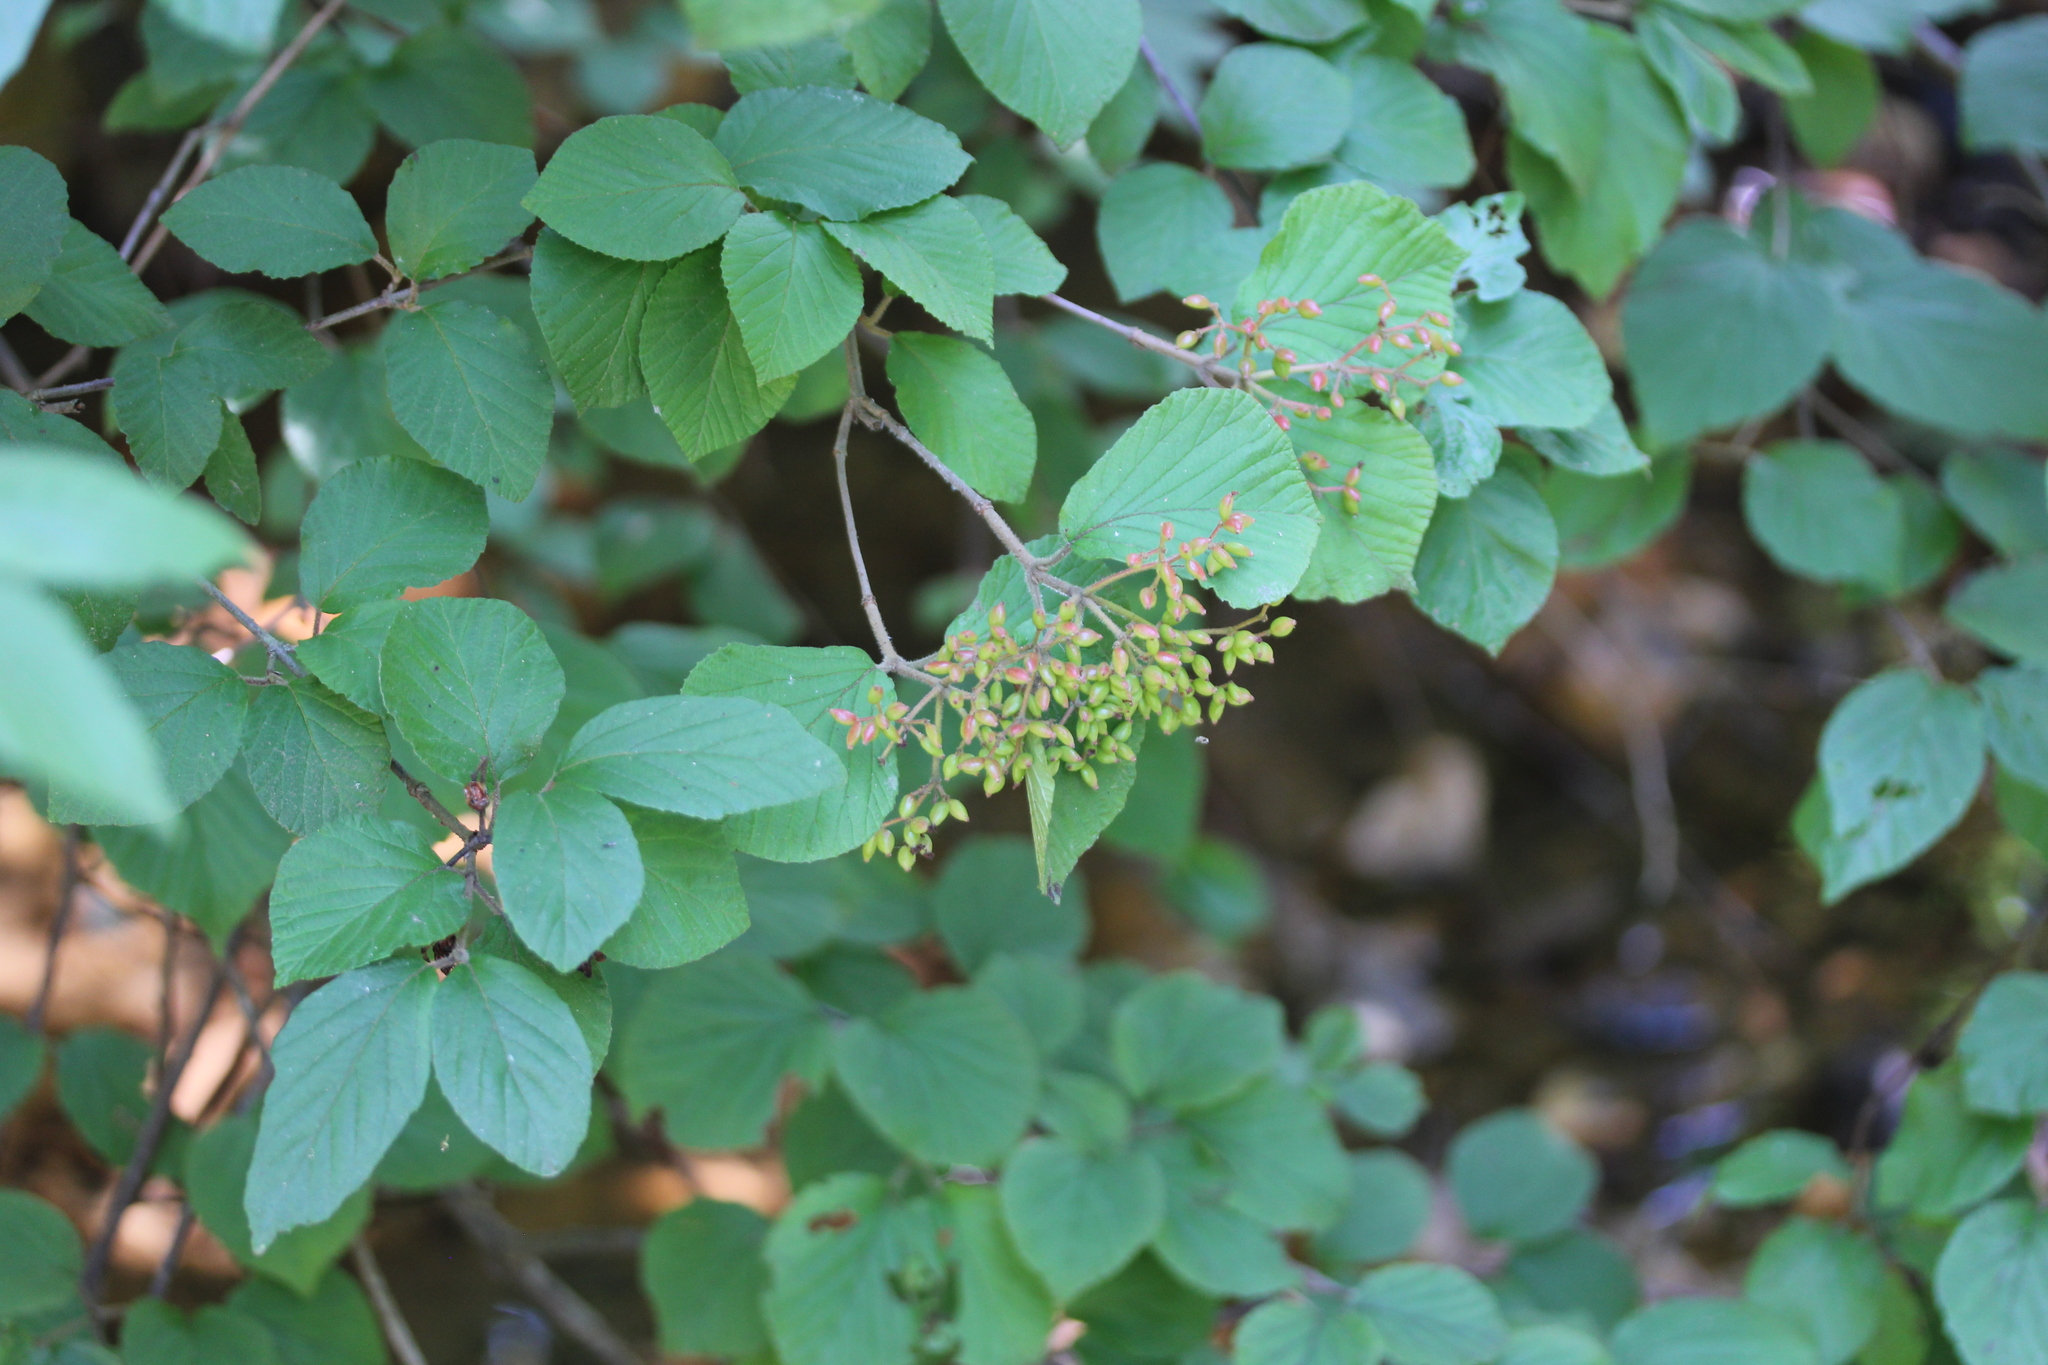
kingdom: Plantae
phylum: Tracheophyta
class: Magnoliopsida
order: Dipsacales
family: Viburnaceae
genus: Viburnum
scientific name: Viburnum dilatatum
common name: Linden arrowwood
